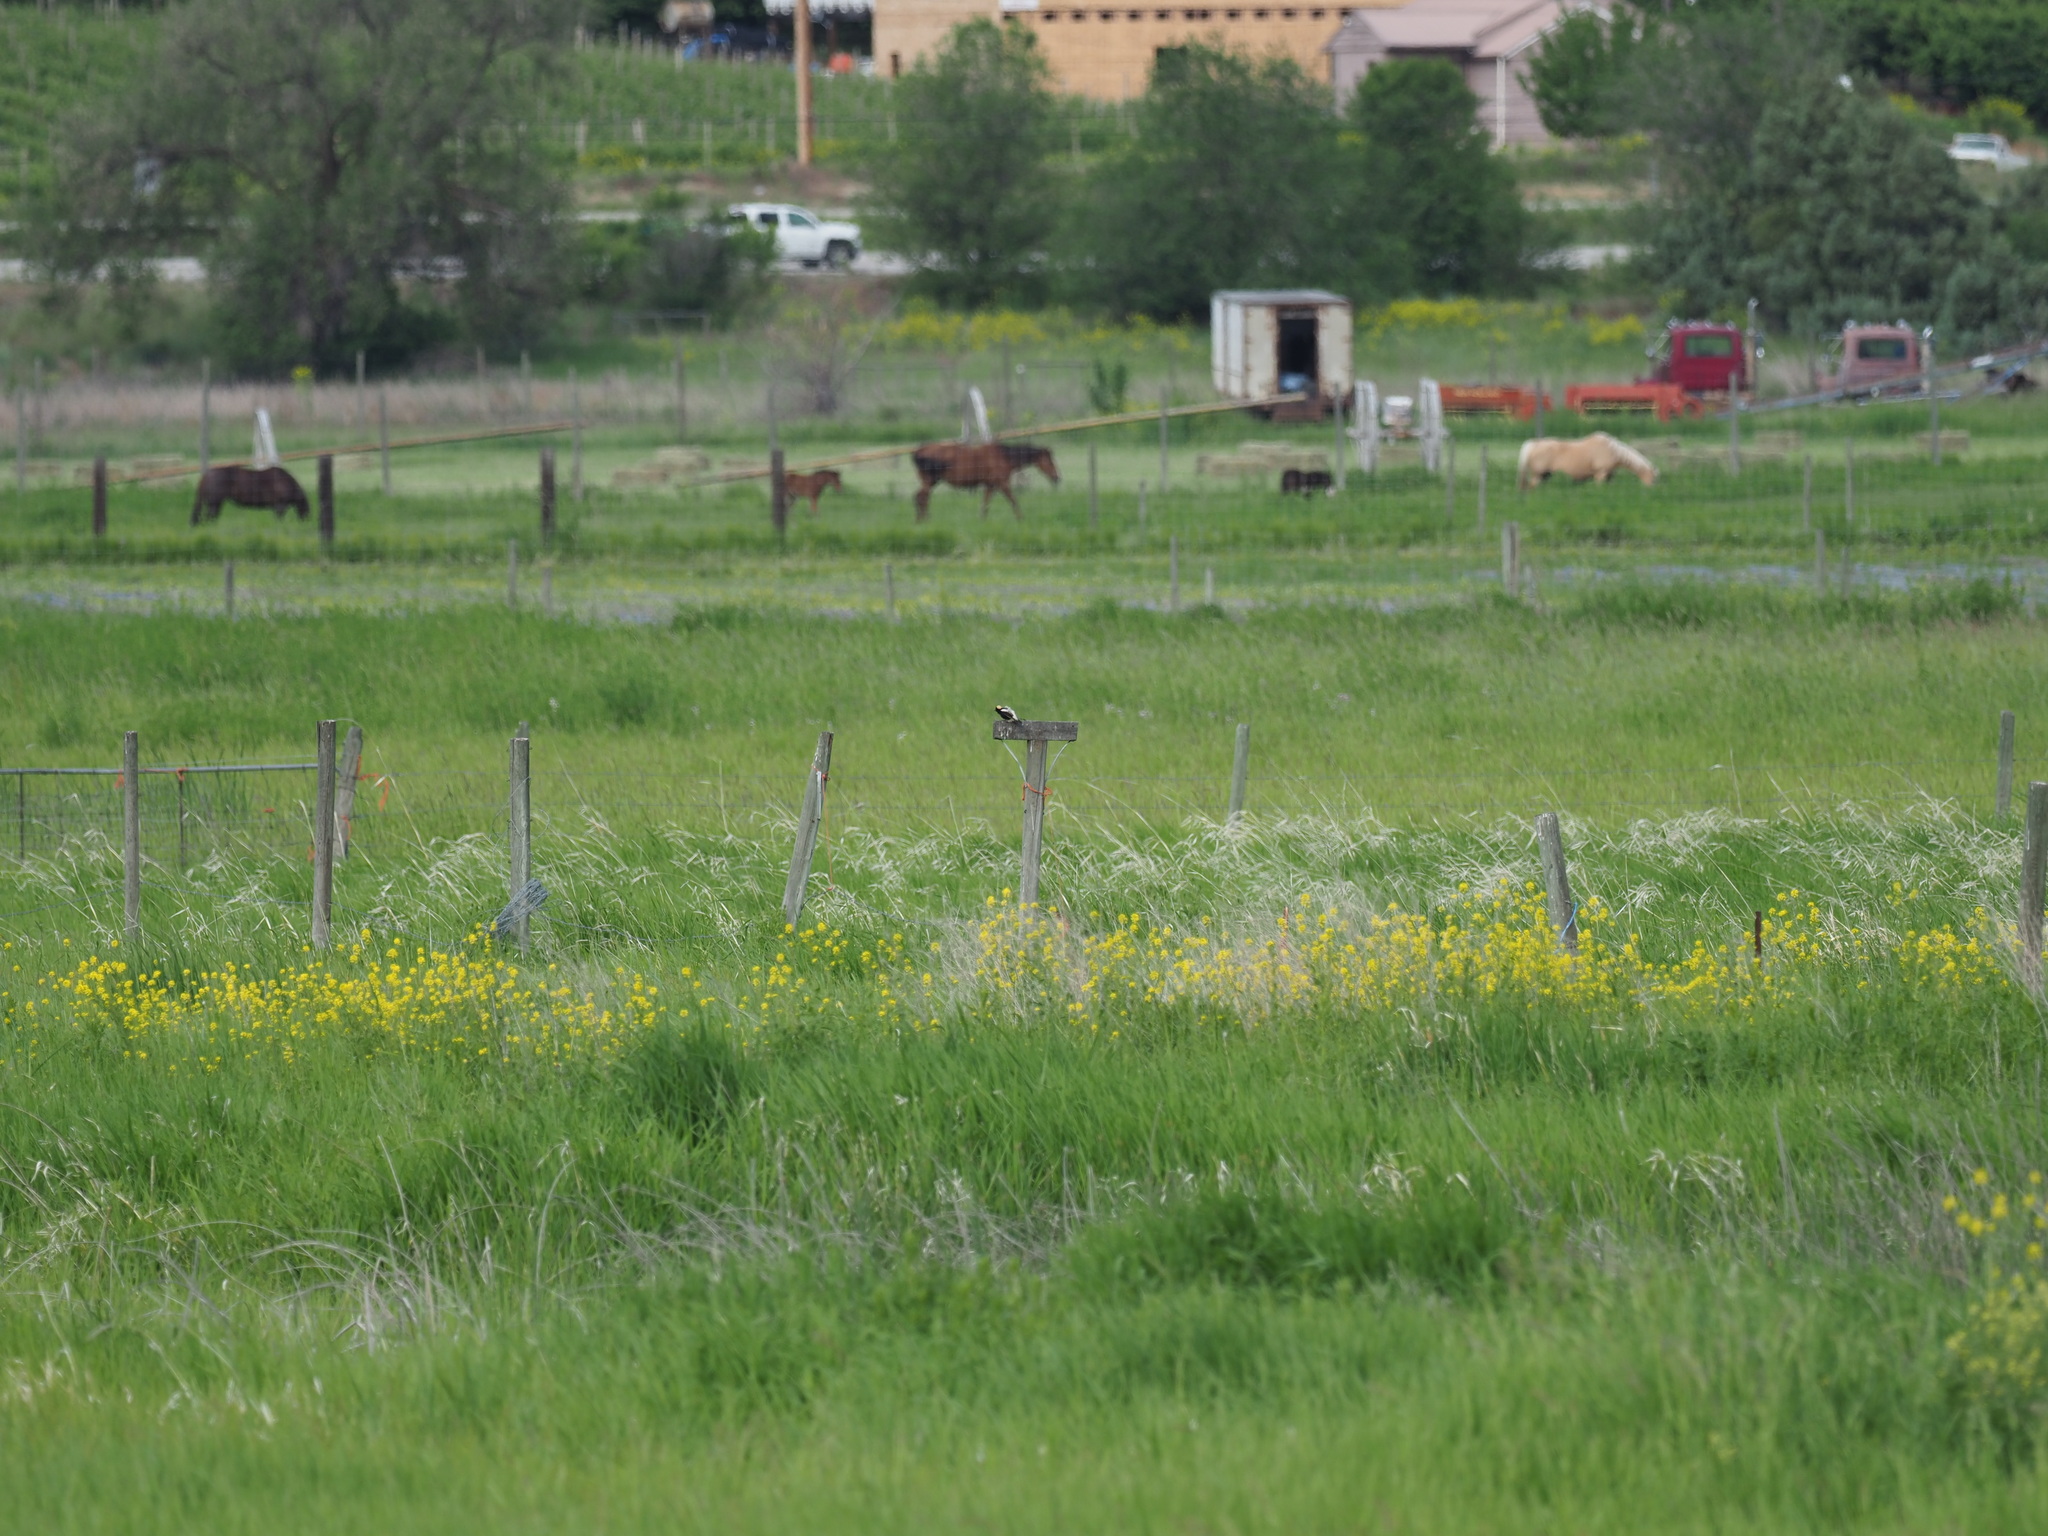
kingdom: Animalia
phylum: Chordata
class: Aves
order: Passeriformes
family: Icteridae
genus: Dolichonyx
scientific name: Dolichonyx oryzivorus
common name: Bobolink
